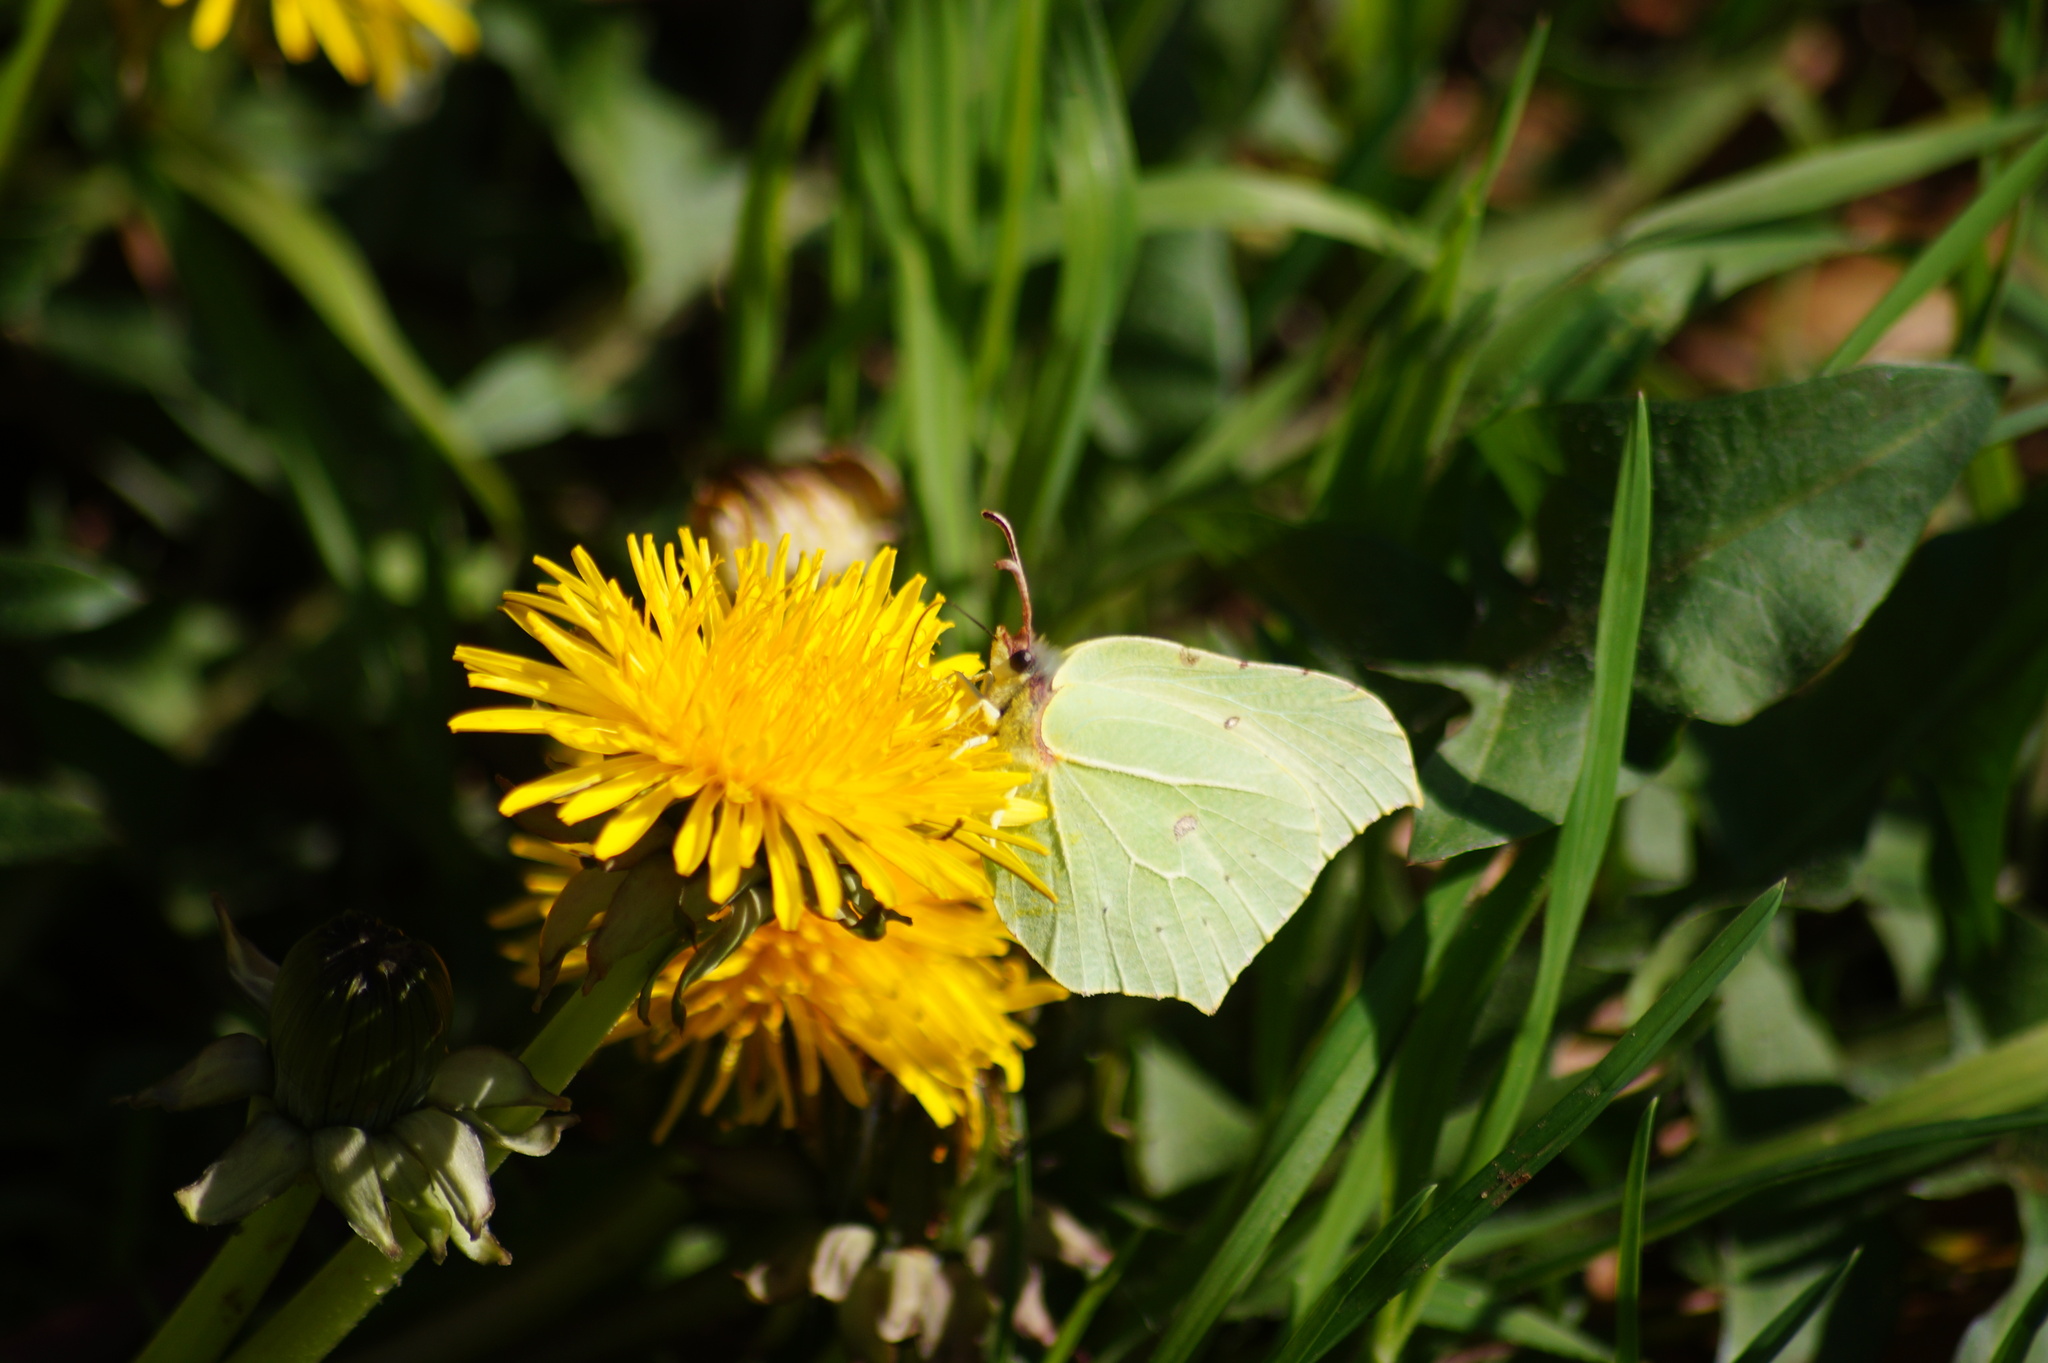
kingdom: Animalia
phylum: Arthropoda
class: Insecta
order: Lepidoptera
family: Pieridae
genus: Gonepteryx
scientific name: Gonepteryx rhamni
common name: Brimstone
